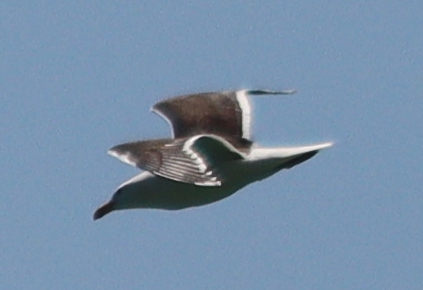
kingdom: Animalia
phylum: Chordata
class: Aves
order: Charadriiformes
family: Laridae
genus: Larus
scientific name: Larus marinus
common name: Great black-backed gull
